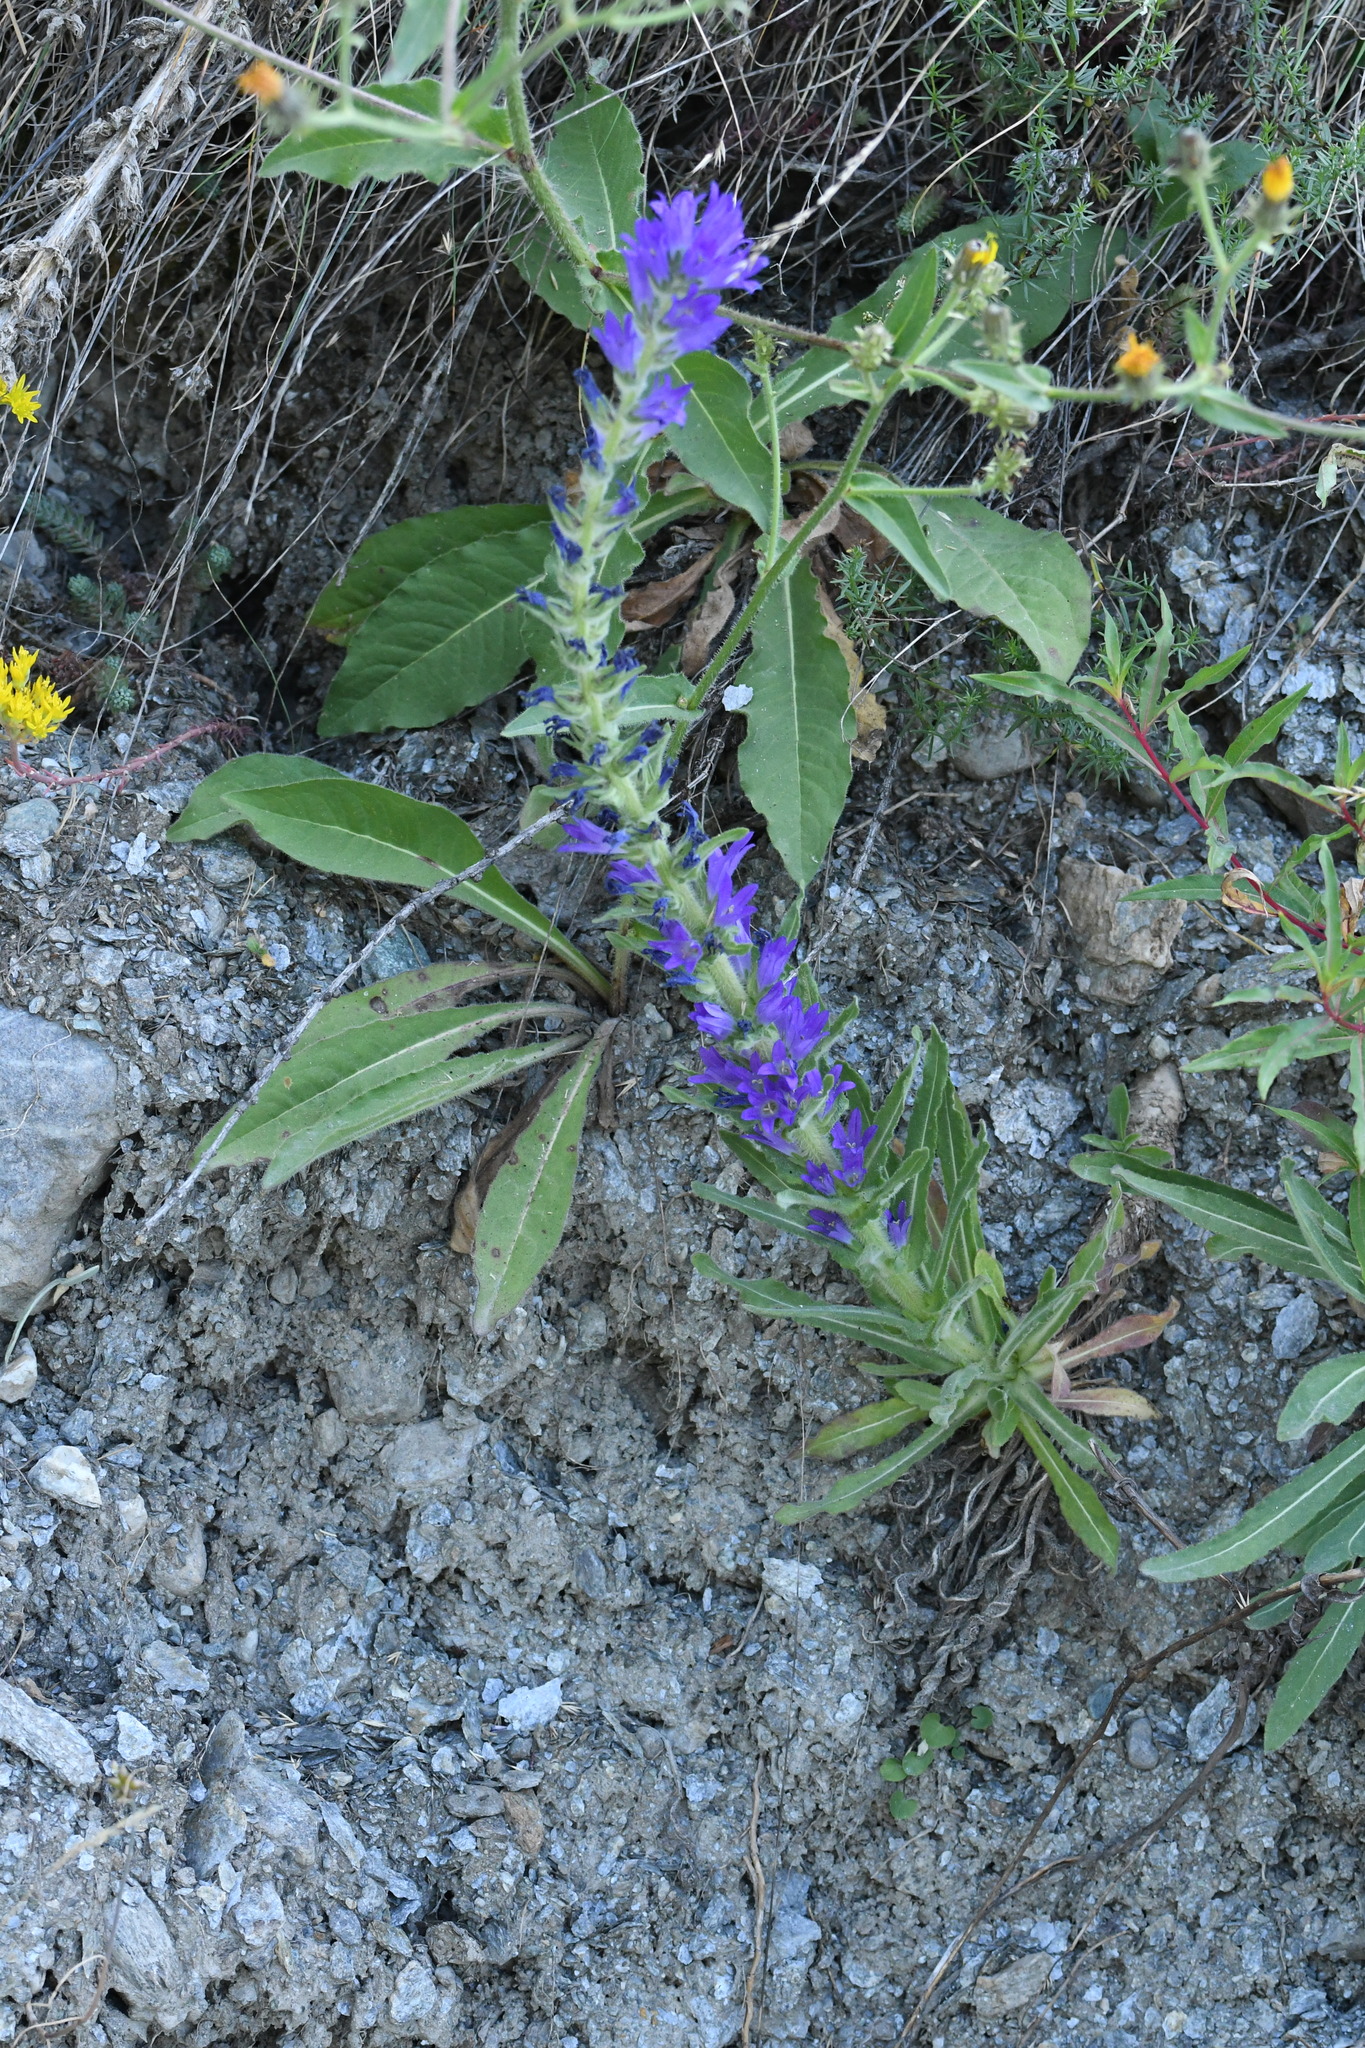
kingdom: Plantae
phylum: Tracheophyta
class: Magnoliopsida
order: Asterales
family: Campanulaceae
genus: Campanula
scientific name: Campanula spicata
